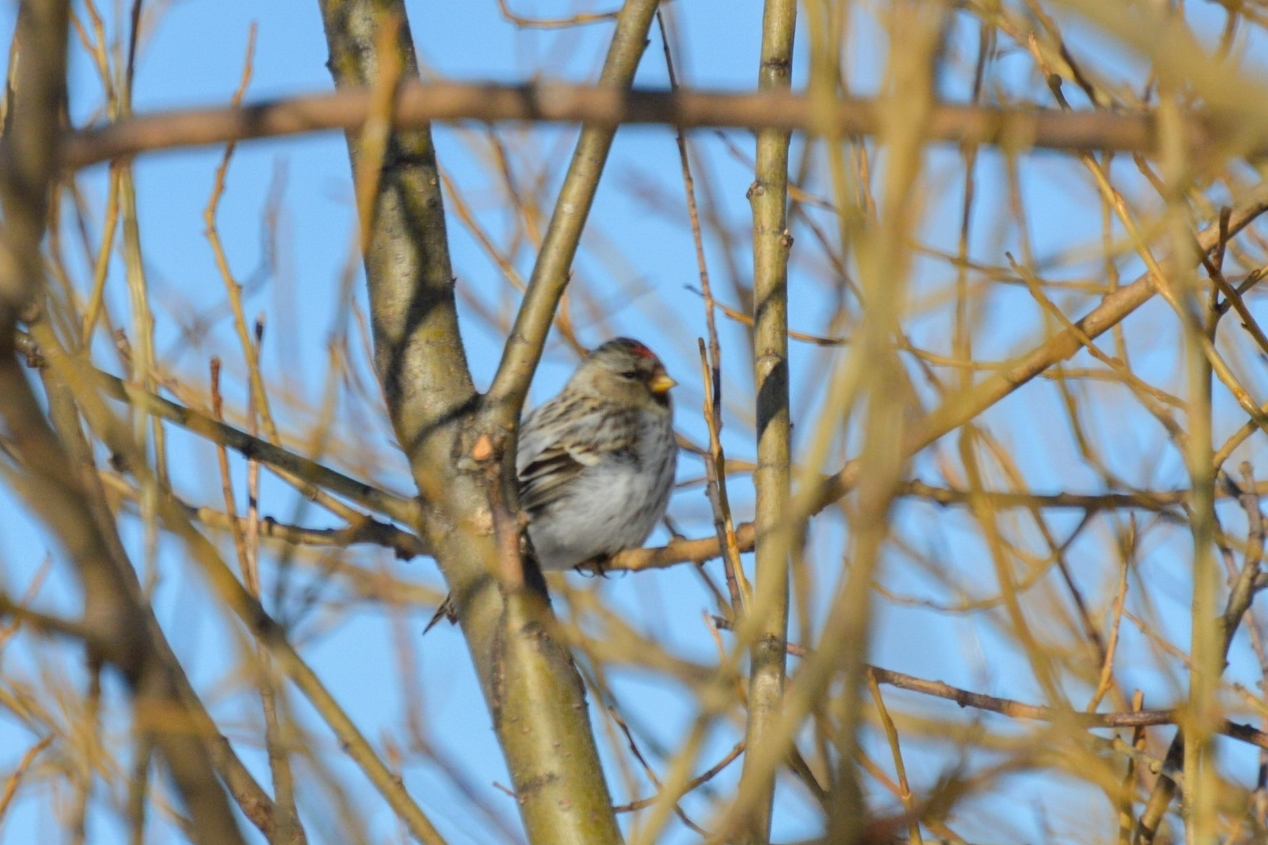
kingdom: Animalia
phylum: Chordata
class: Aves
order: Passeriformes
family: Fringillidae
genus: Acanthis
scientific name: Acanthis hornemanni
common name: Arctic redpoll
